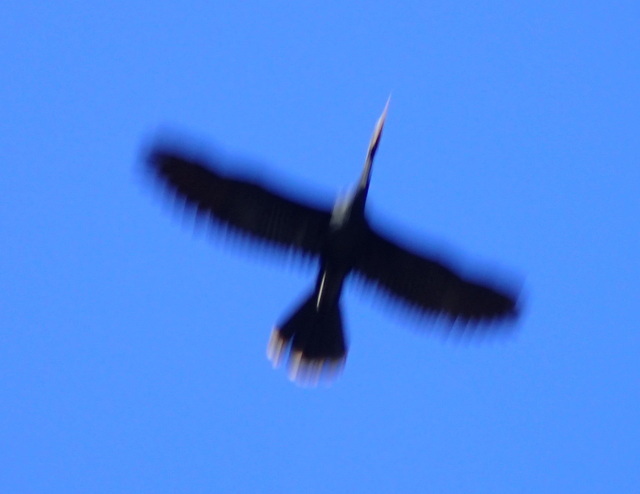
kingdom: Animalia
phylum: Chordata
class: Aves
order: Suliformes
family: Anhingidae
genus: Anhinga
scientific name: Anhinga anhinga
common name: Anhinga
